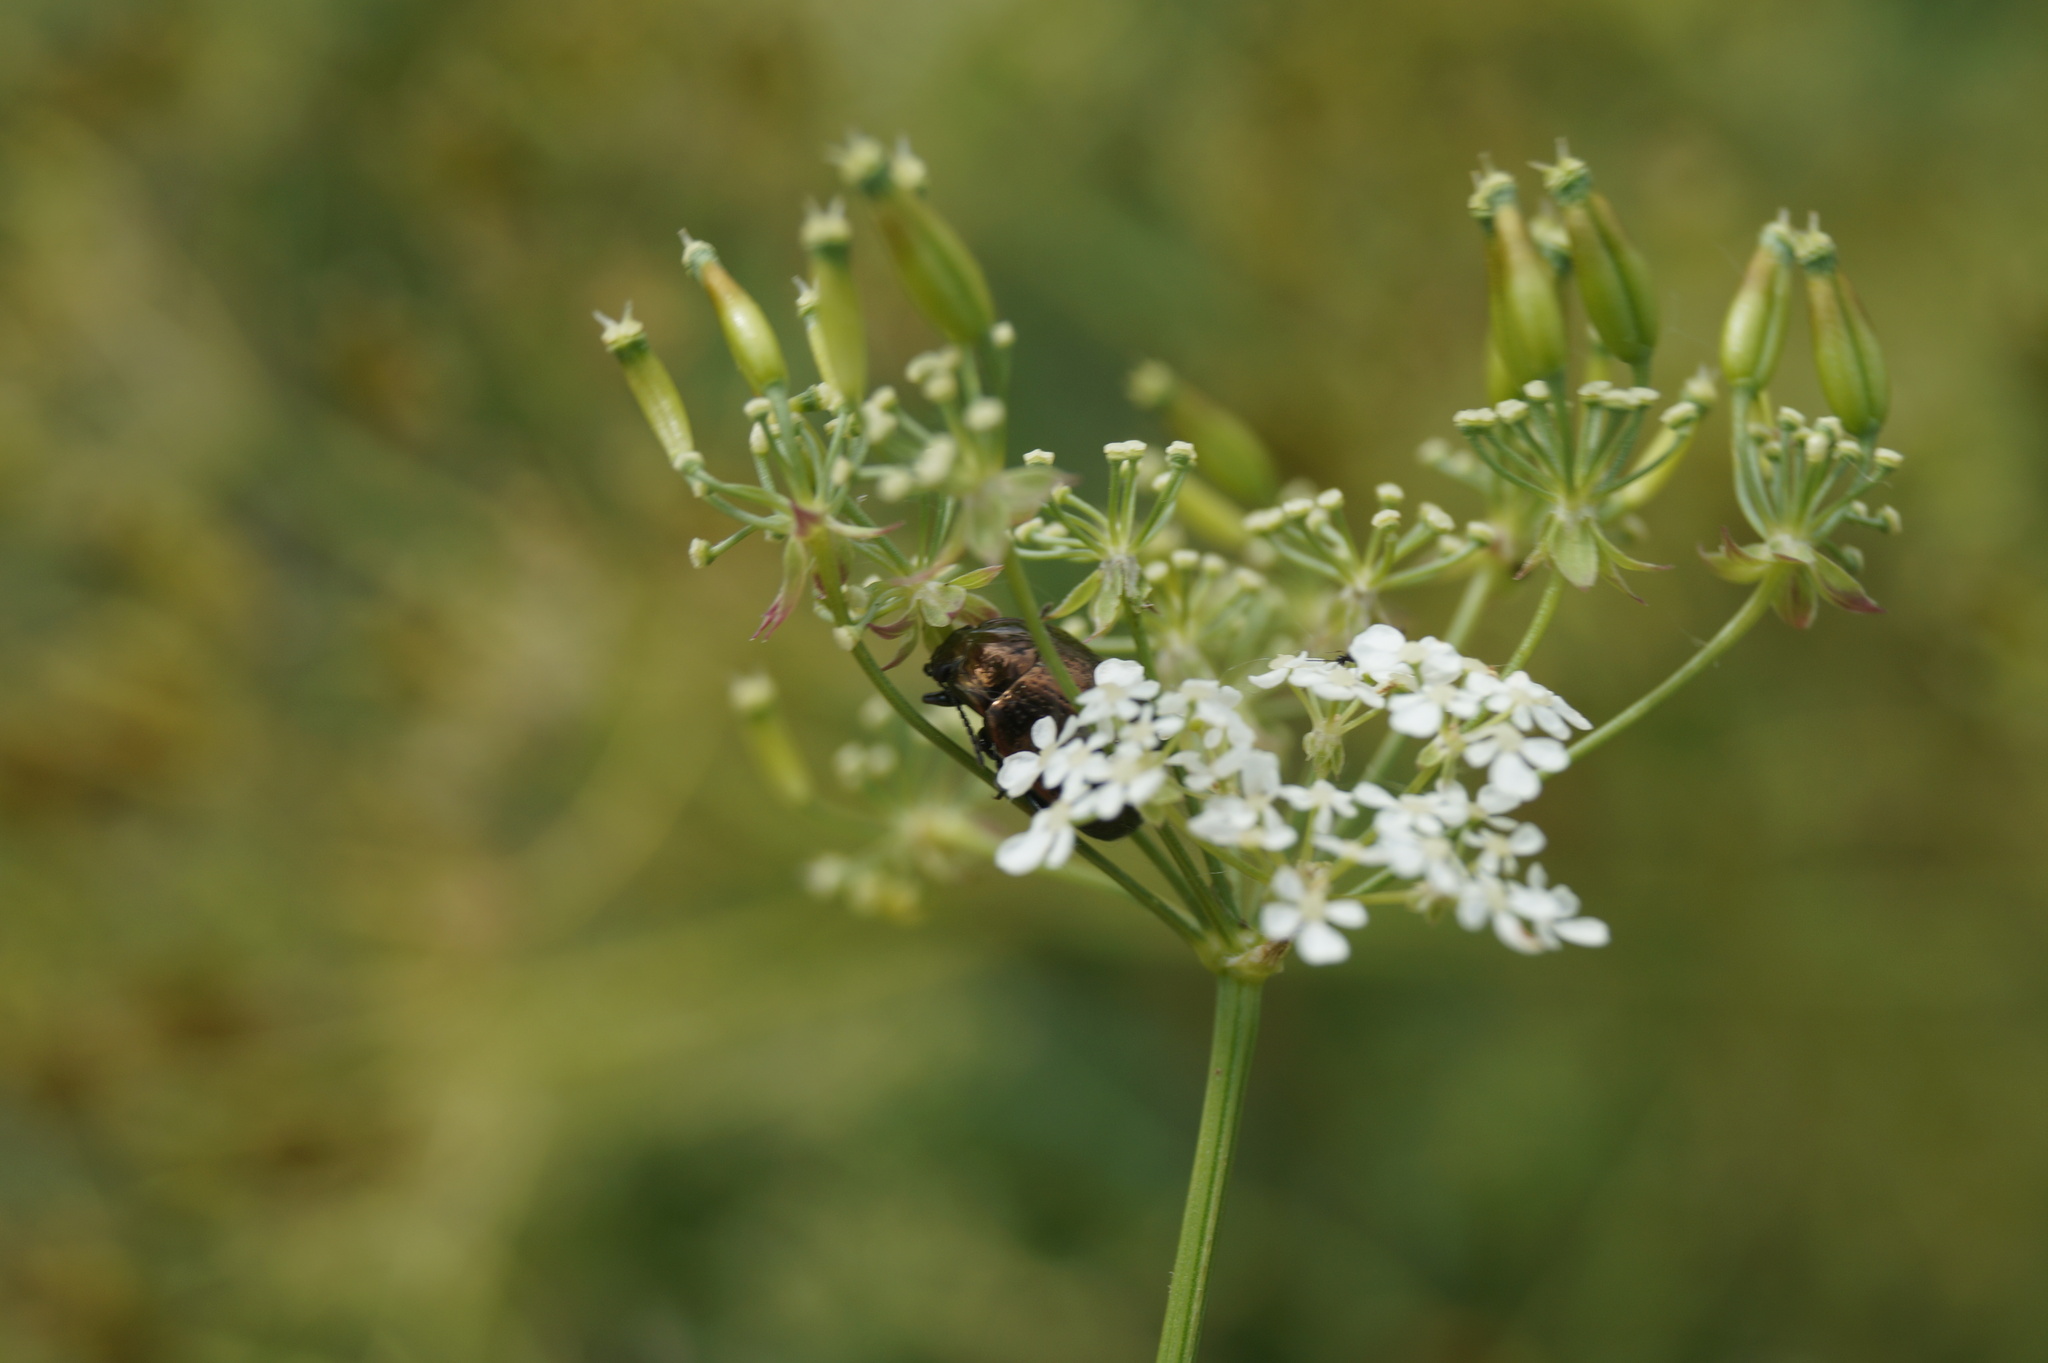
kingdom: Animalia
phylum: Arthropoda
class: Insecta
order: Coleoptera
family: Chrysomelidae
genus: Chrysolina
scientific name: Chrysolina oricalcia
